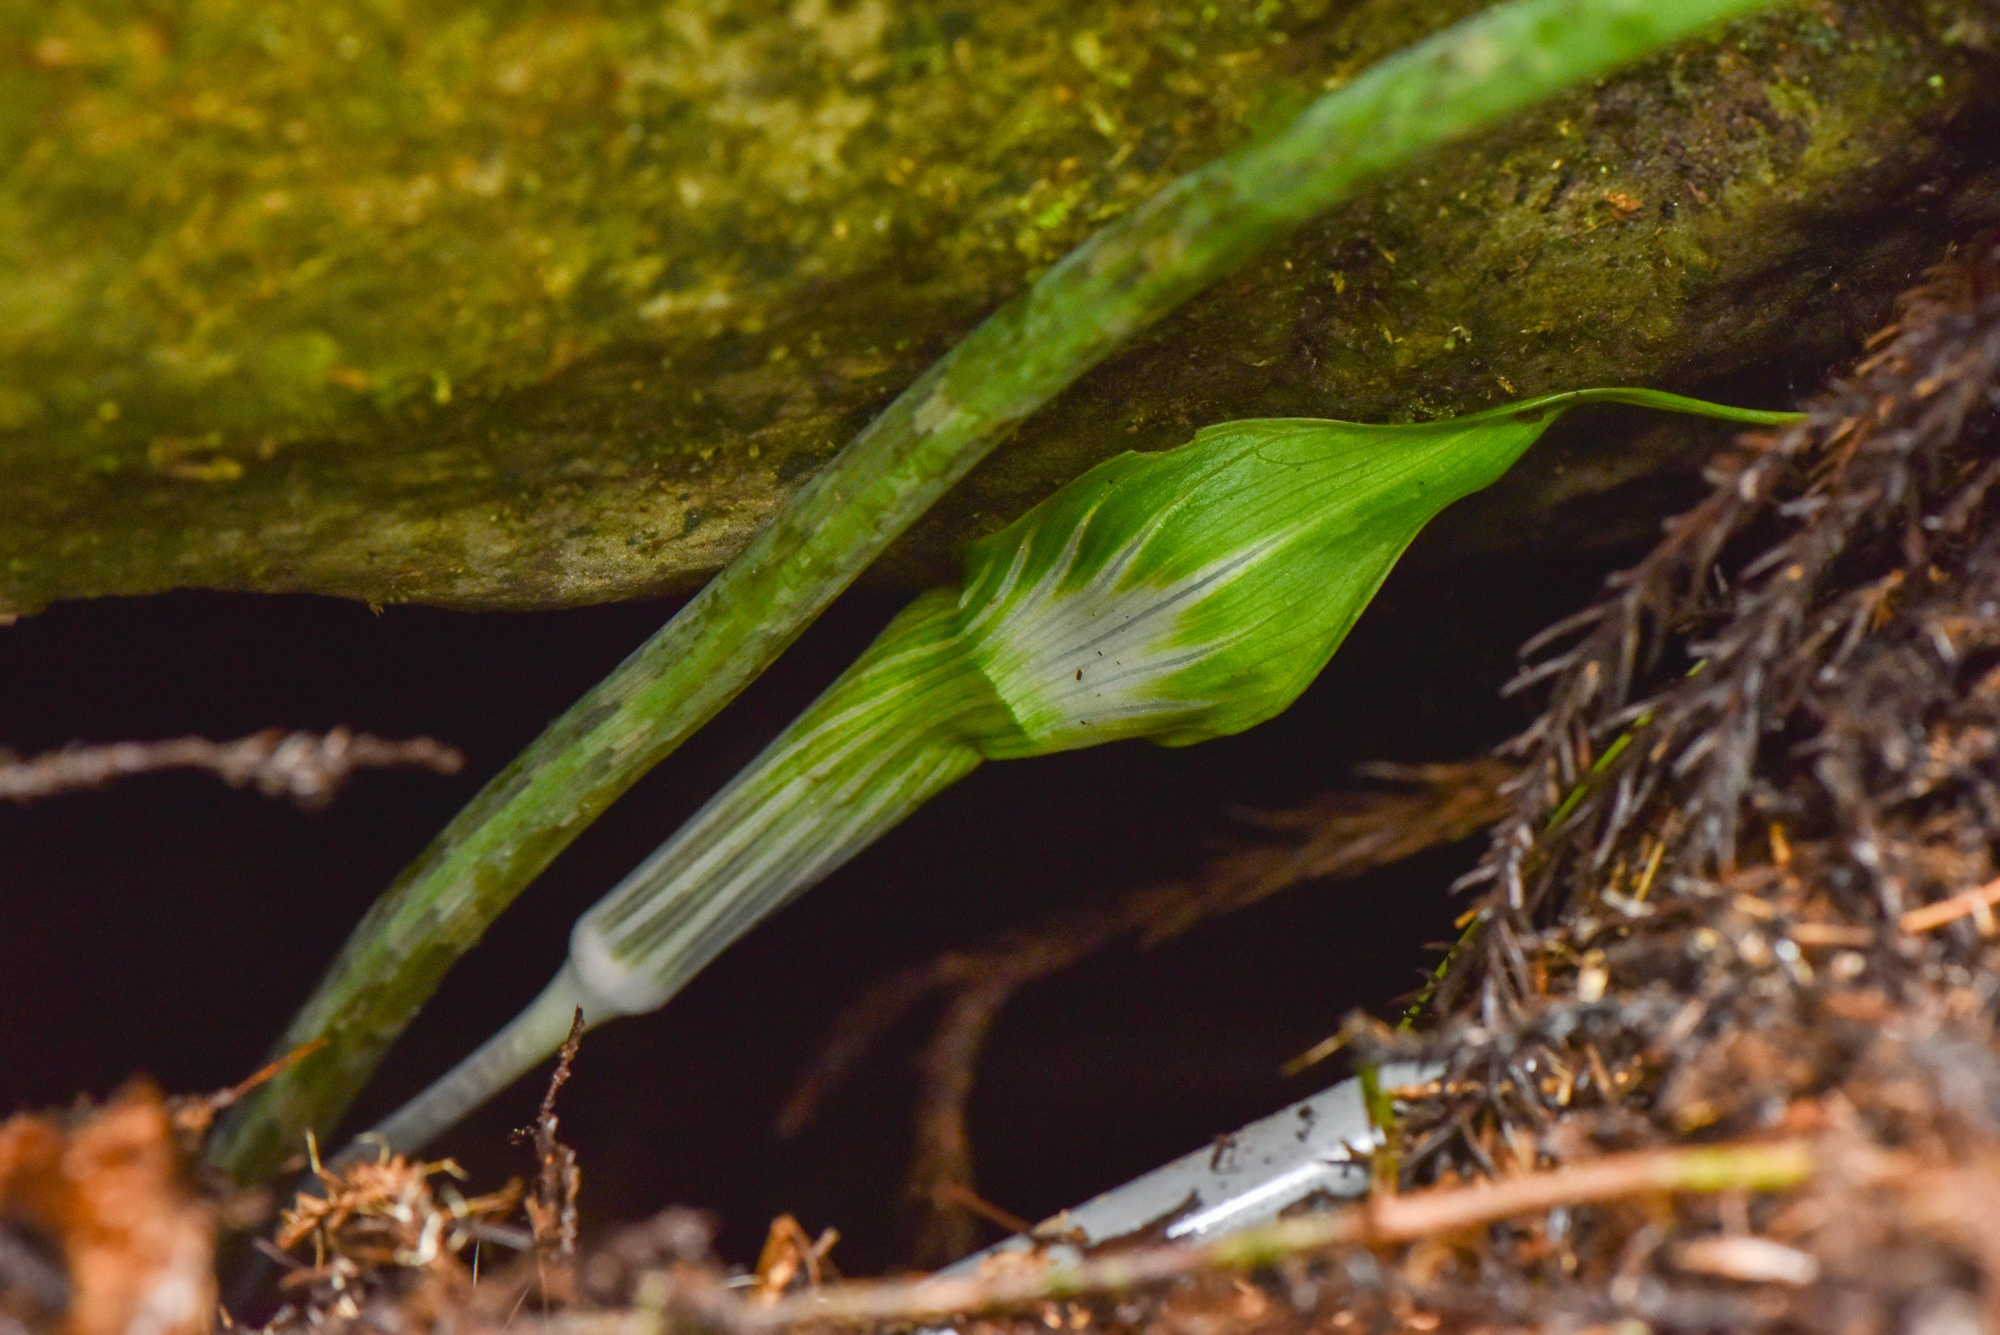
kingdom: Plantae
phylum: Tracheophyta
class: Liliopsida
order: Alismatales
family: Araceae
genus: Arisaema
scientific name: Arisaema formosanum
